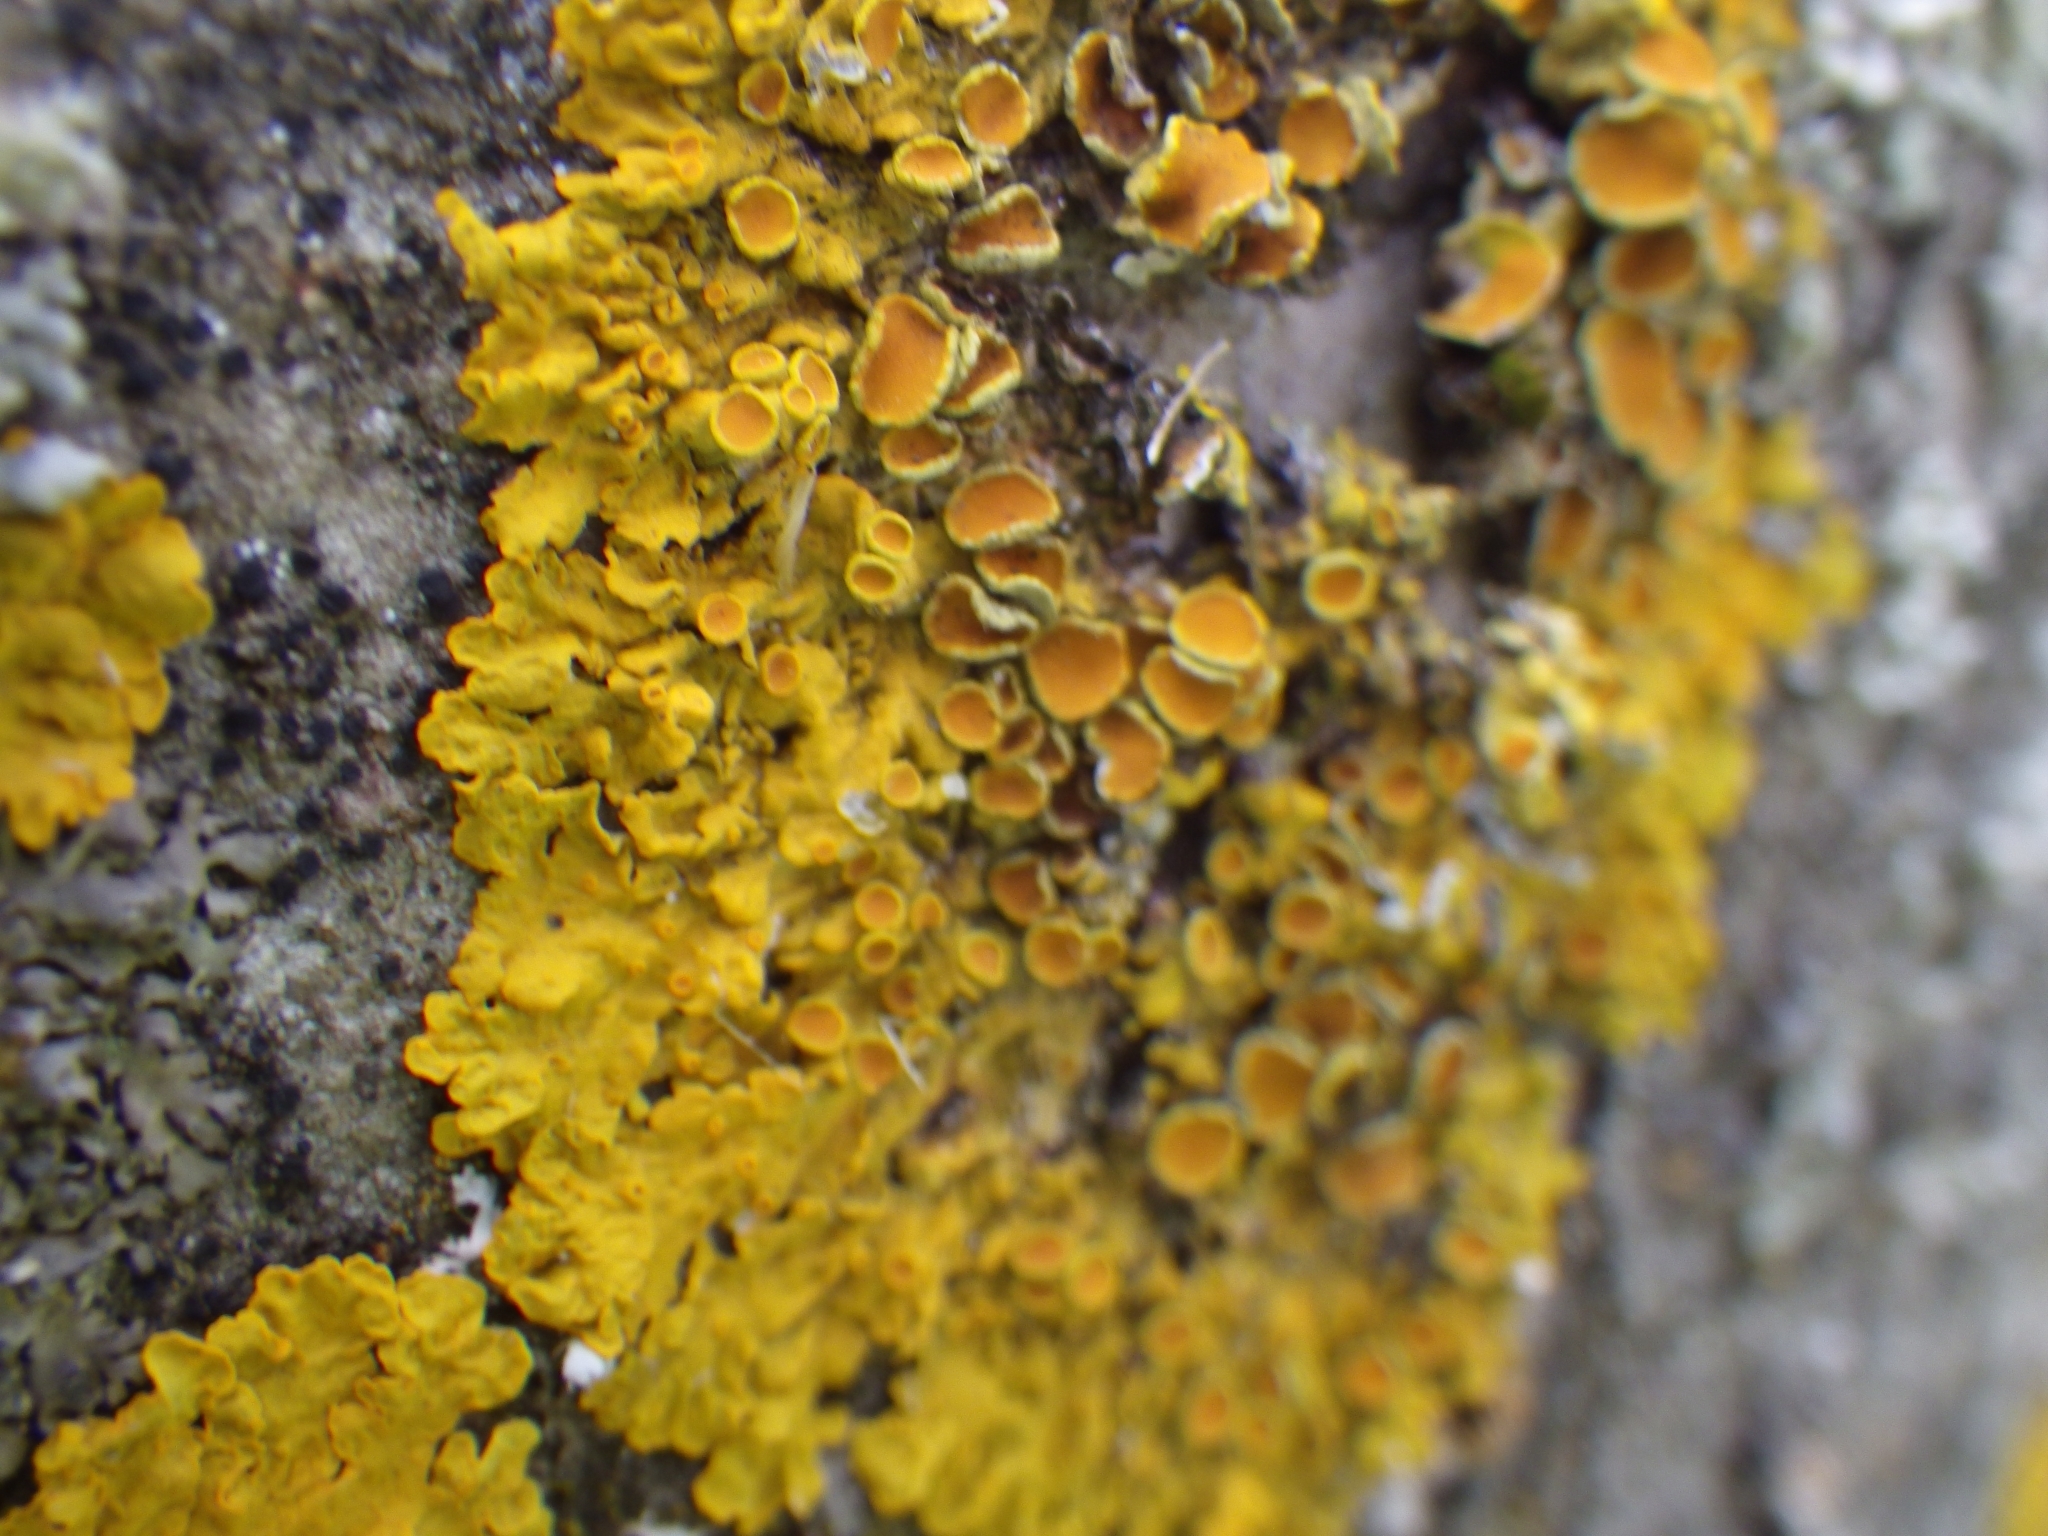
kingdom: Fungi
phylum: Ascomycota
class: Lecanoromycetes
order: Teloschistales
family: Teloschistaceae
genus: Xanthoria
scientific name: Xanthoria parietina
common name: Common orange lichen
